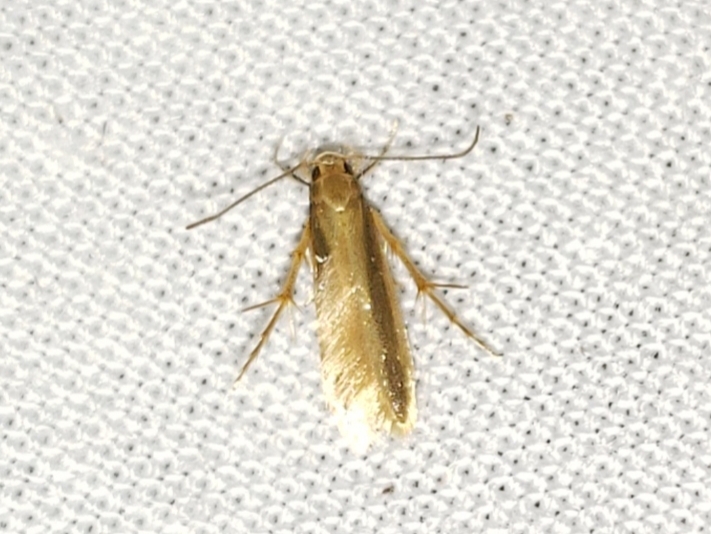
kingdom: Animalia
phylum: Arthropoda
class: Insecta
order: Lepidoptera
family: Stathmopodidae
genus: Stathmopoda
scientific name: Stathmopoda elyella
